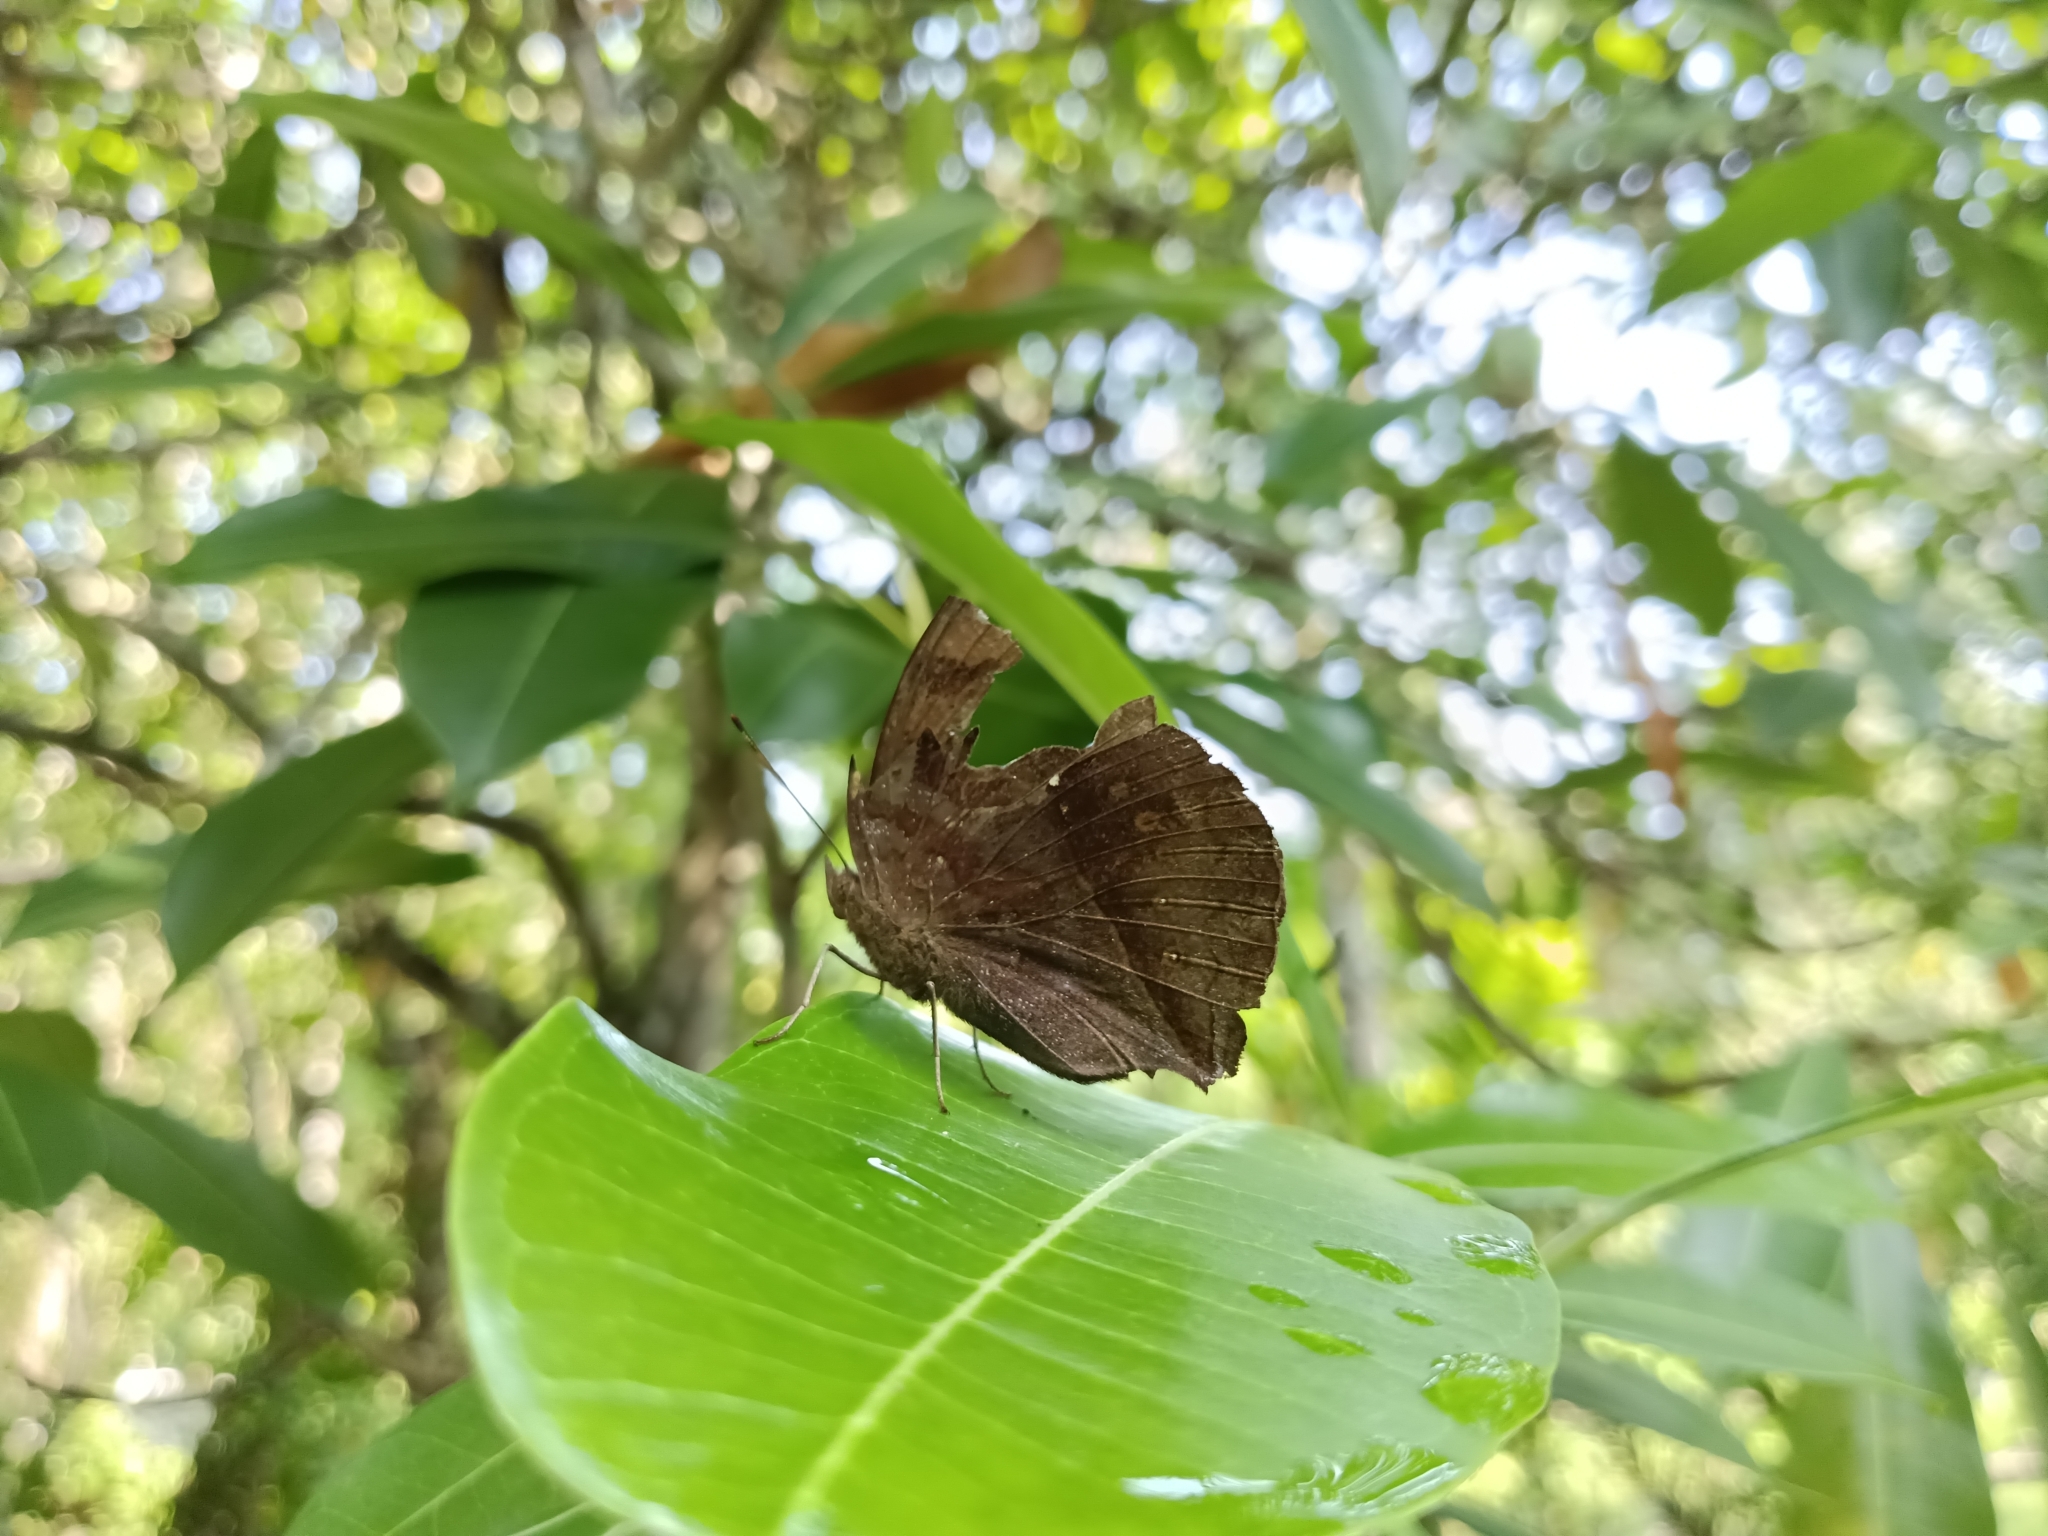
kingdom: Animalia
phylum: Arthropoda
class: Insecta
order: Lepidoptera
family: Nymphalidae
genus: Junonia
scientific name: Junonia iphita
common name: Chocolate pansy
